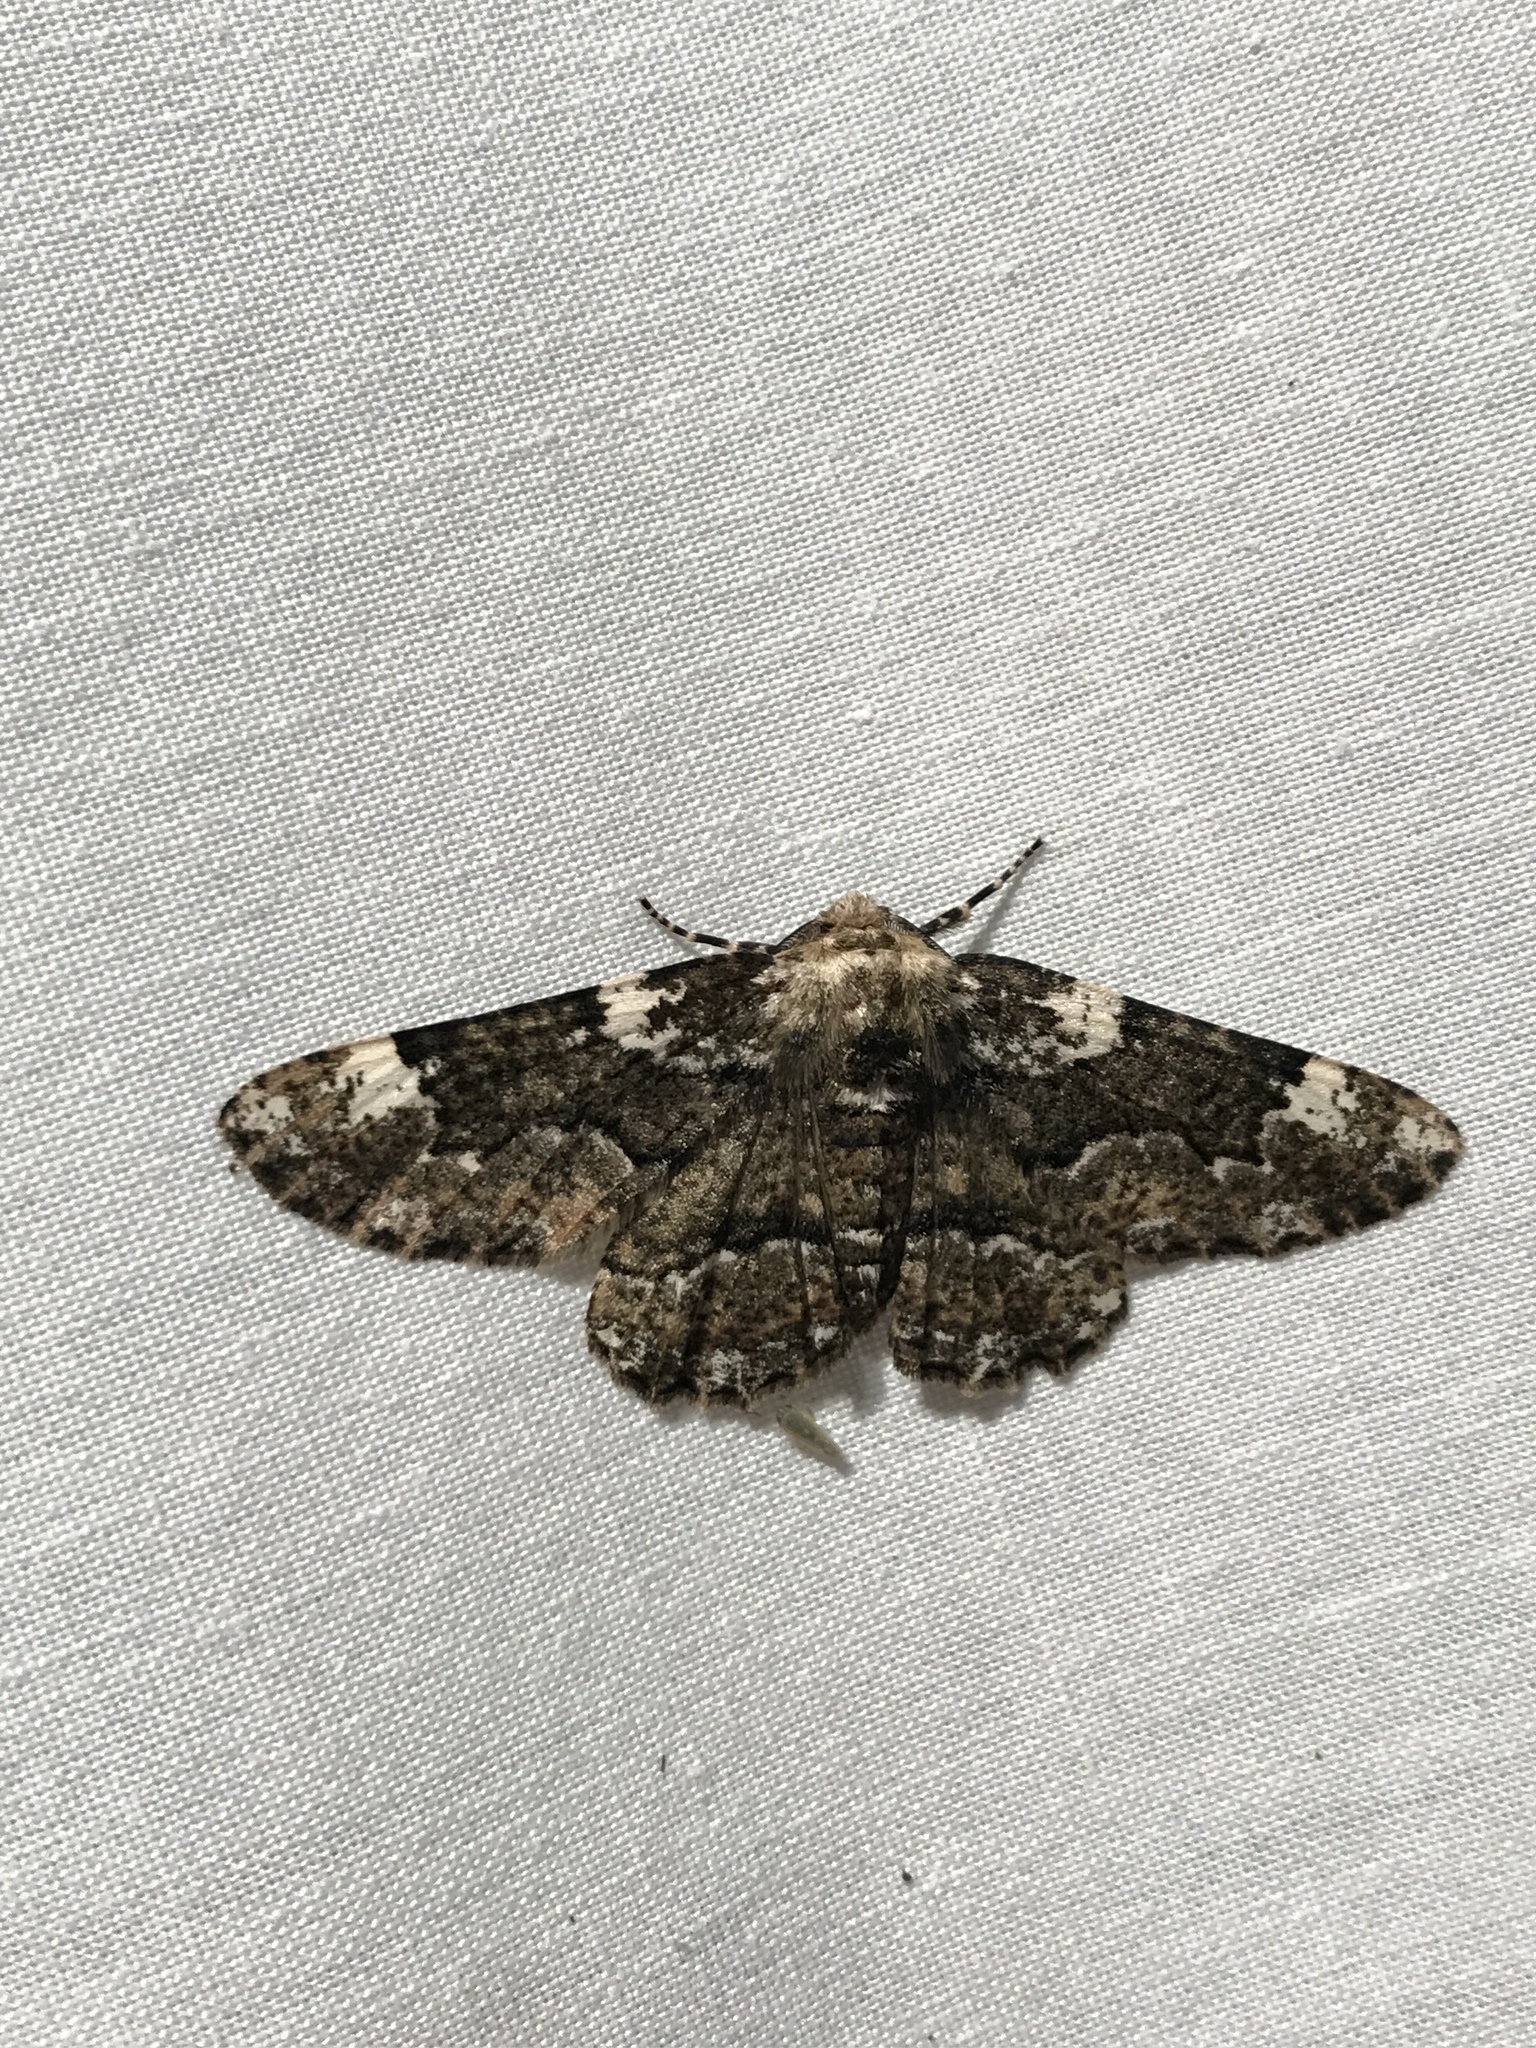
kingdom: Animalia
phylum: Arthropoda
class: Insecta
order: Lepidoptera
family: Geometridae
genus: Phaeoura
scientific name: Phaeoura quernaria
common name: Oak beauty
